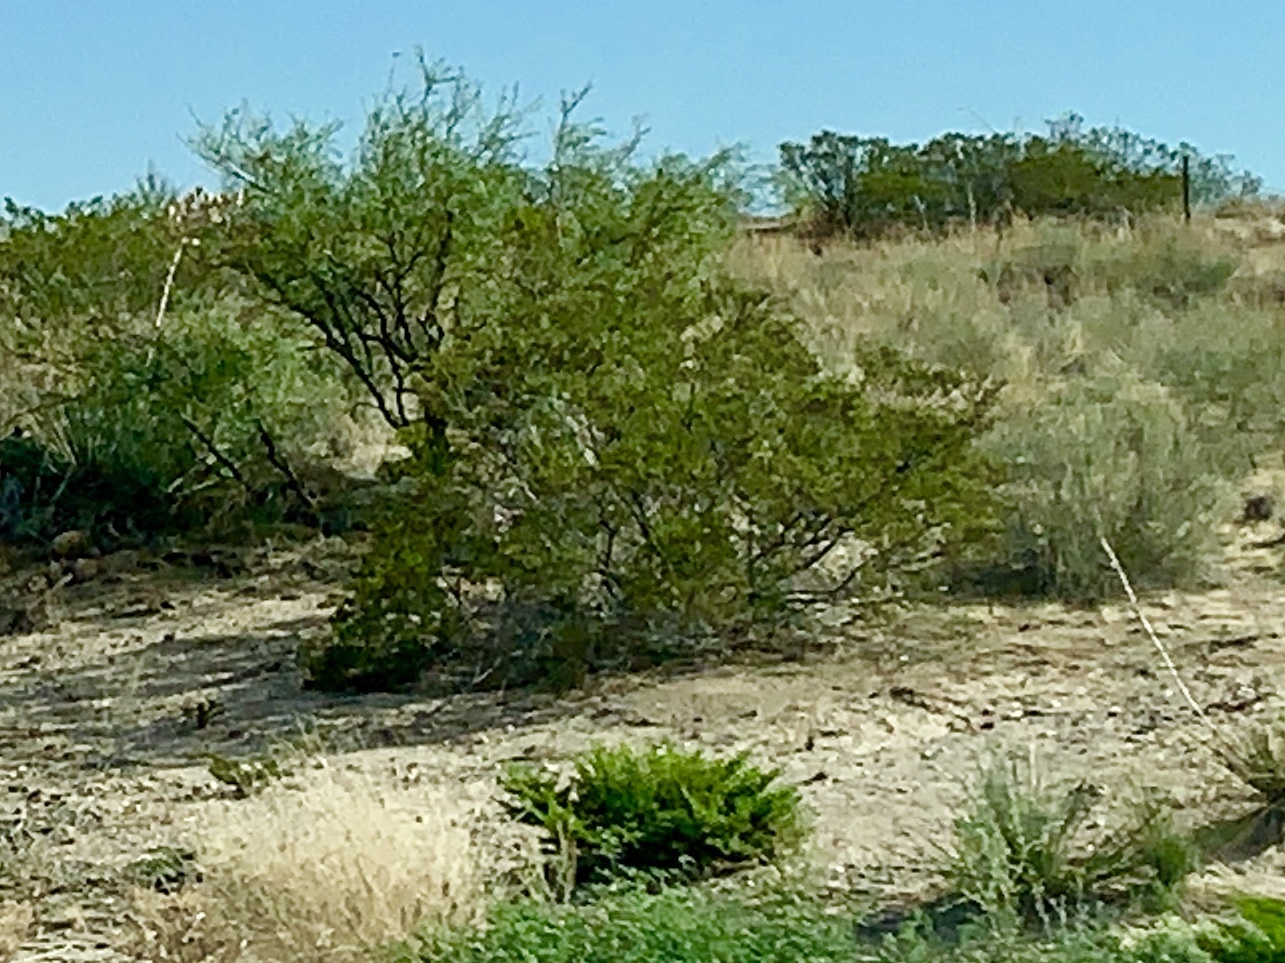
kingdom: Plantae
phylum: Tracheophyta
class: Magnoliopsida
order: Zygophyllales
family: Zygophyllaceae
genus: Larrea
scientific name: Larrea tridentata
